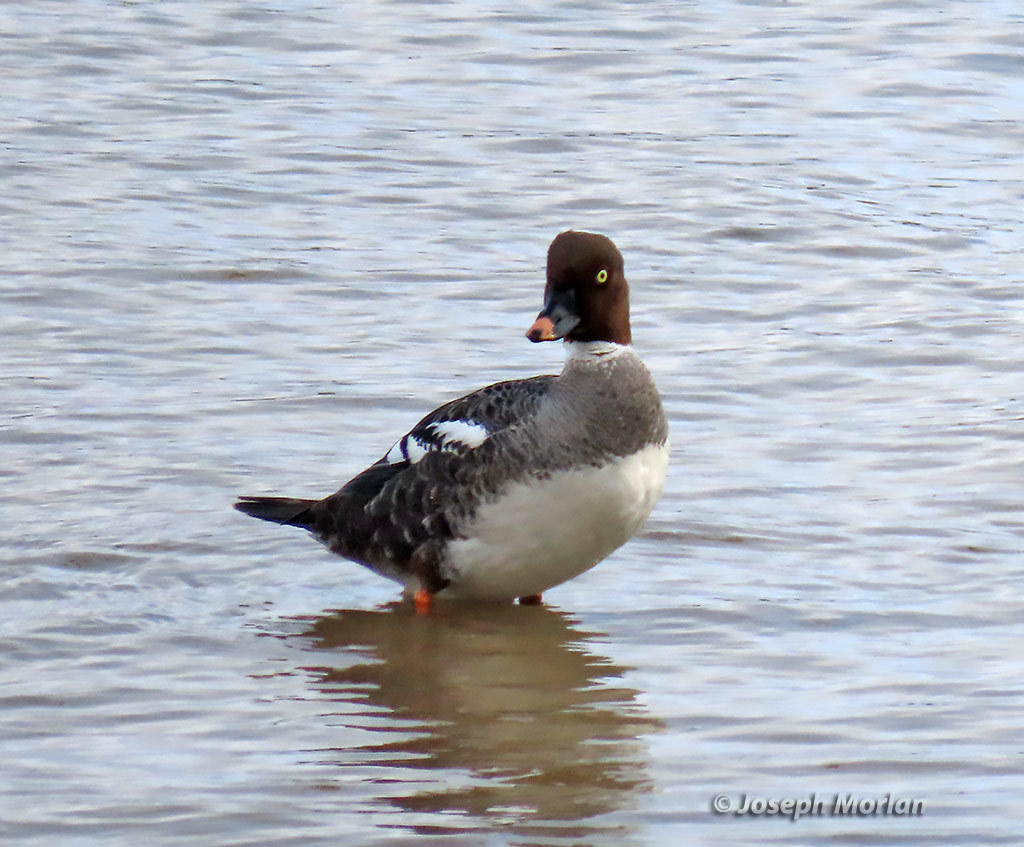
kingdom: Animalia
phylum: Chordata
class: Aves
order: Anseriformes
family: Anatidae
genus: Bucephala
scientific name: Bucephala clangula
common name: Common goldeneye
